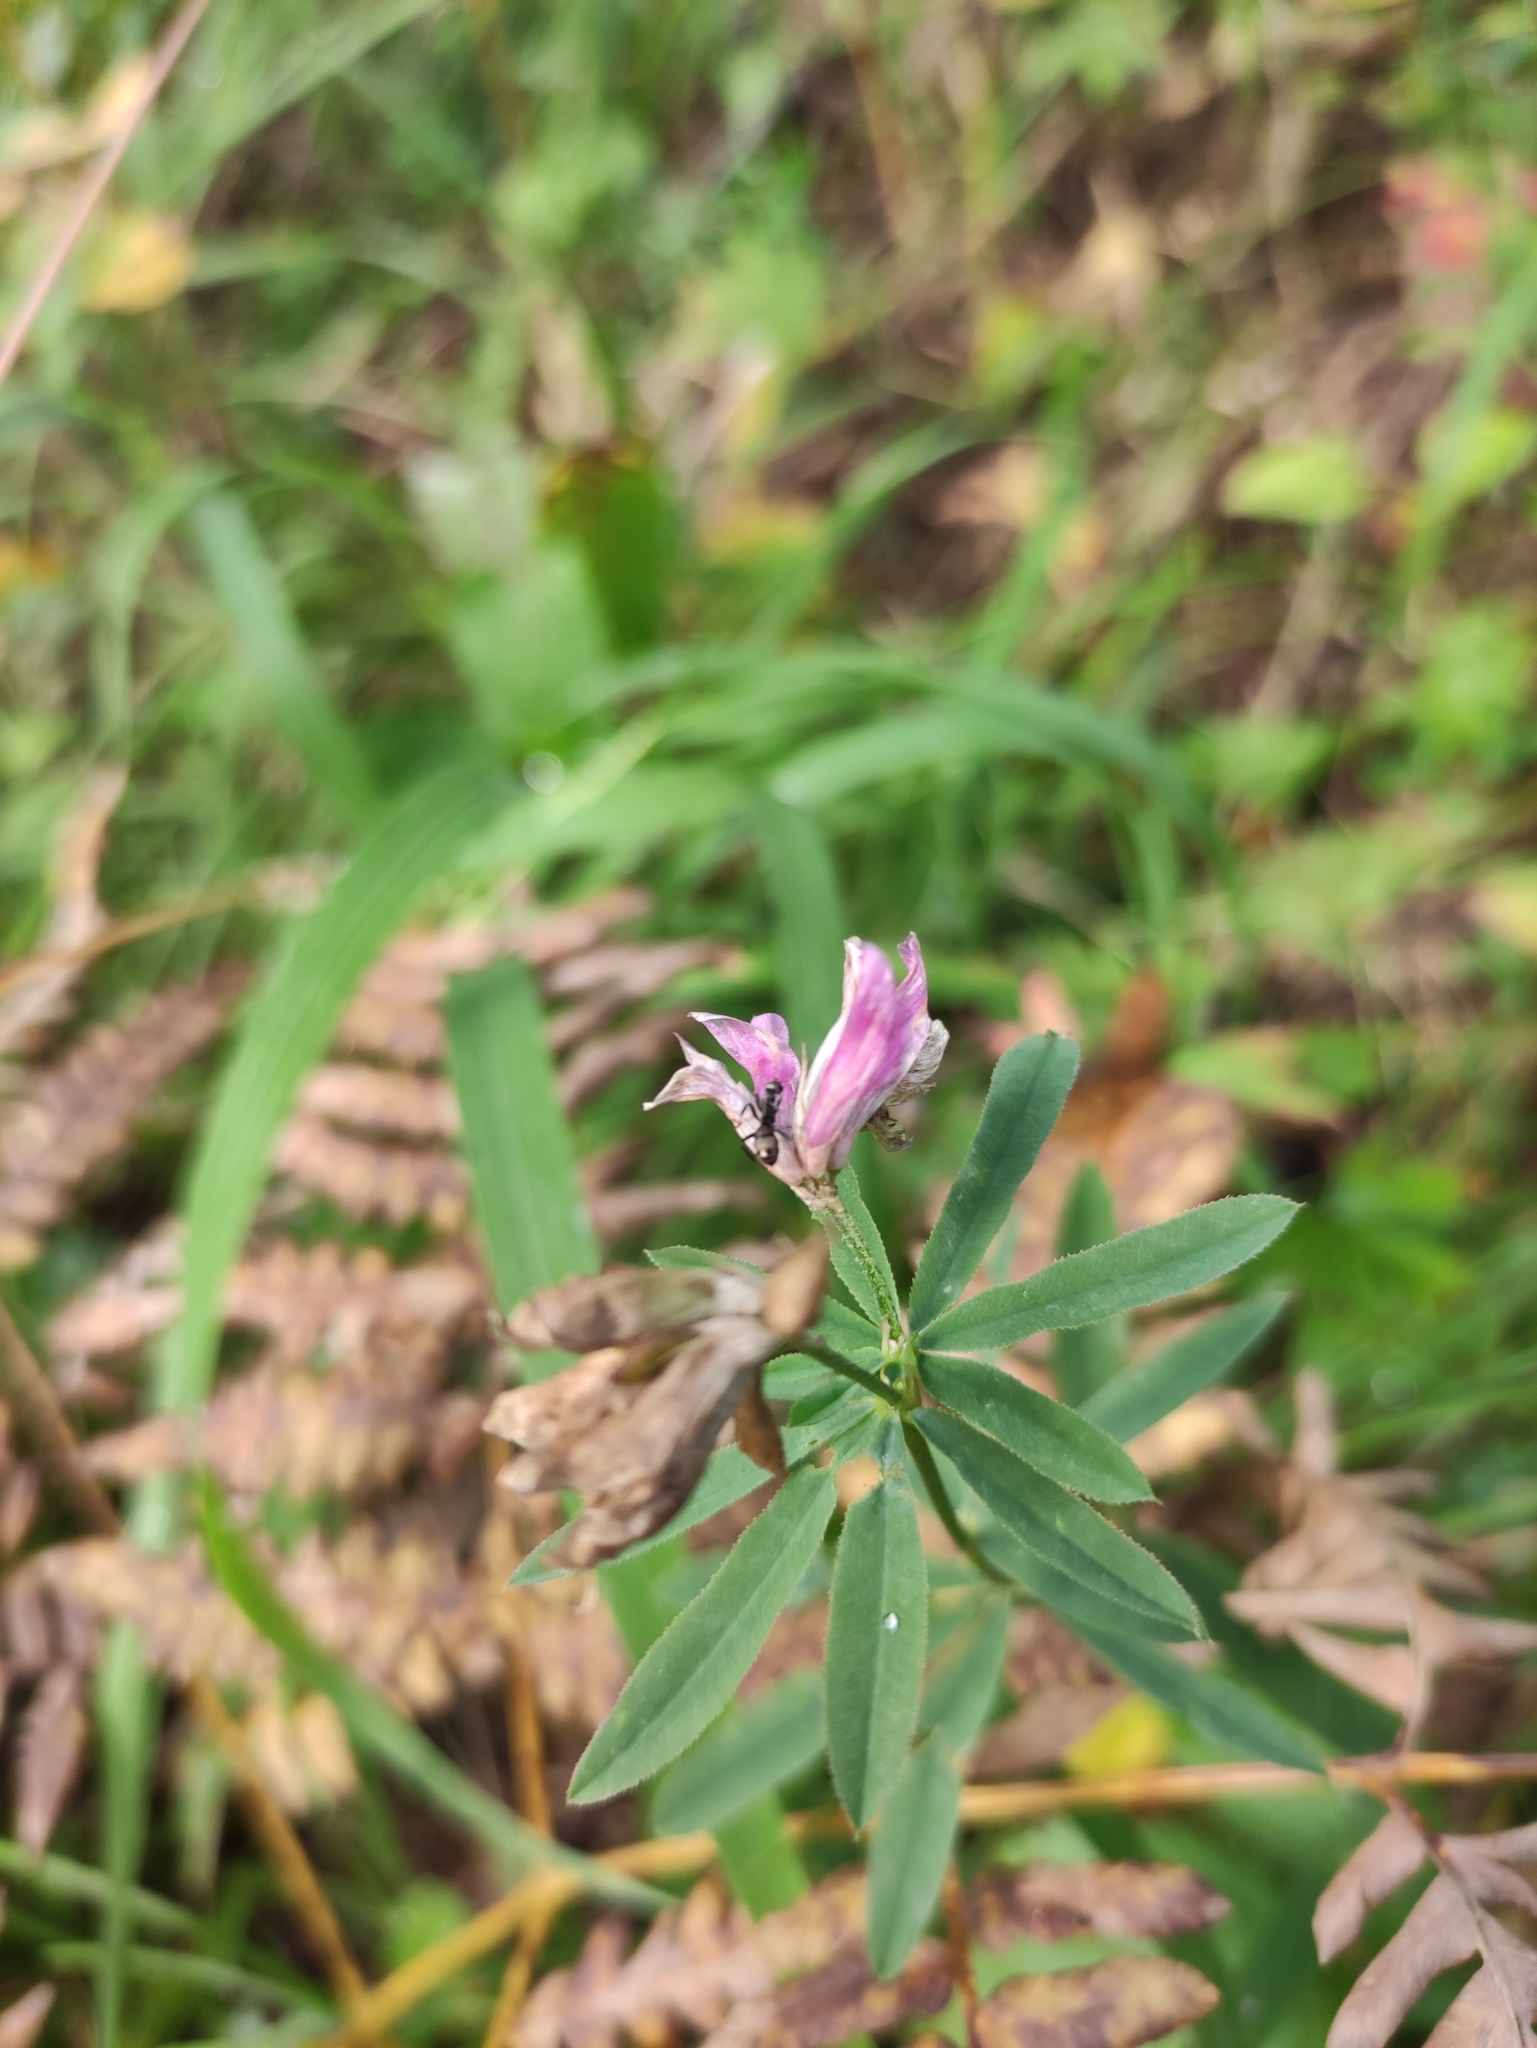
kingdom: Plantae
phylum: Tracheophyta
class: Magnoliopsida
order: Fabales
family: Fabaceae
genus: Trifolium
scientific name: Trifolium lupinaster
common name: Lupine clover
